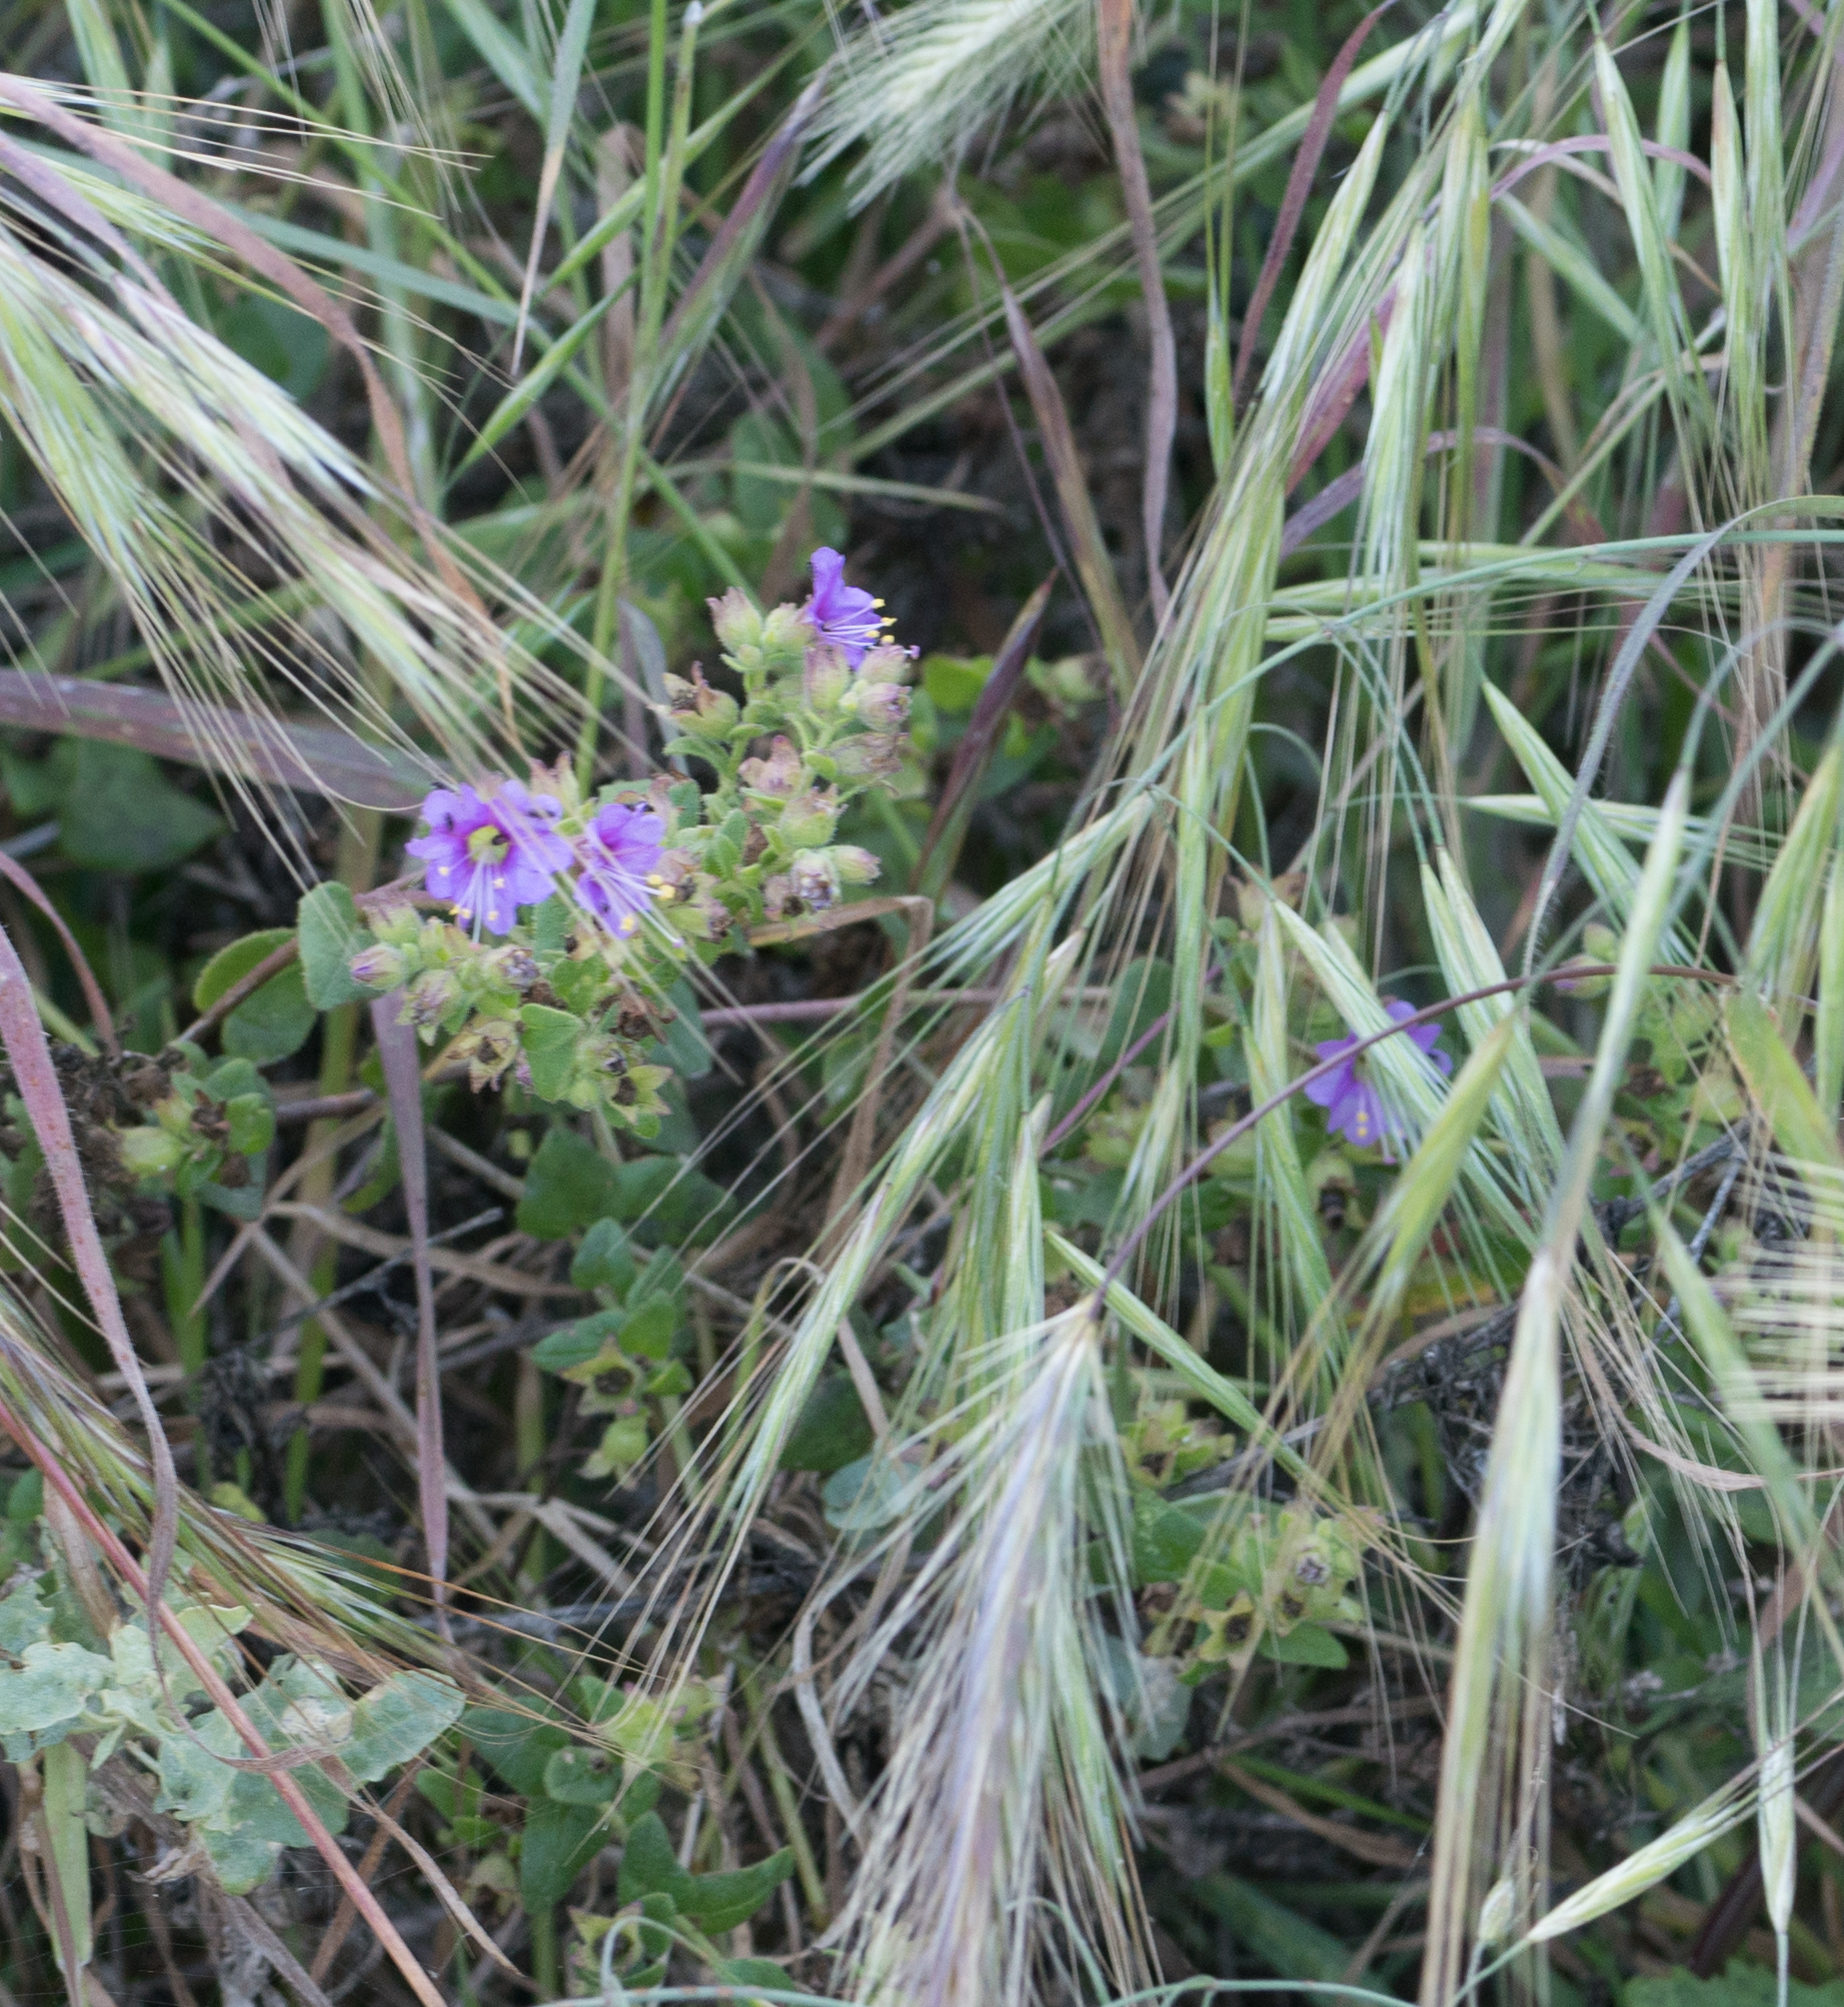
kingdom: Plantae
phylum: Tracheophyta
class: Magnoliopsida
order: Caryophyllales
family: Nyctaginaceae
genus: Mirabilis
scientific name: Mirabilis laevis
